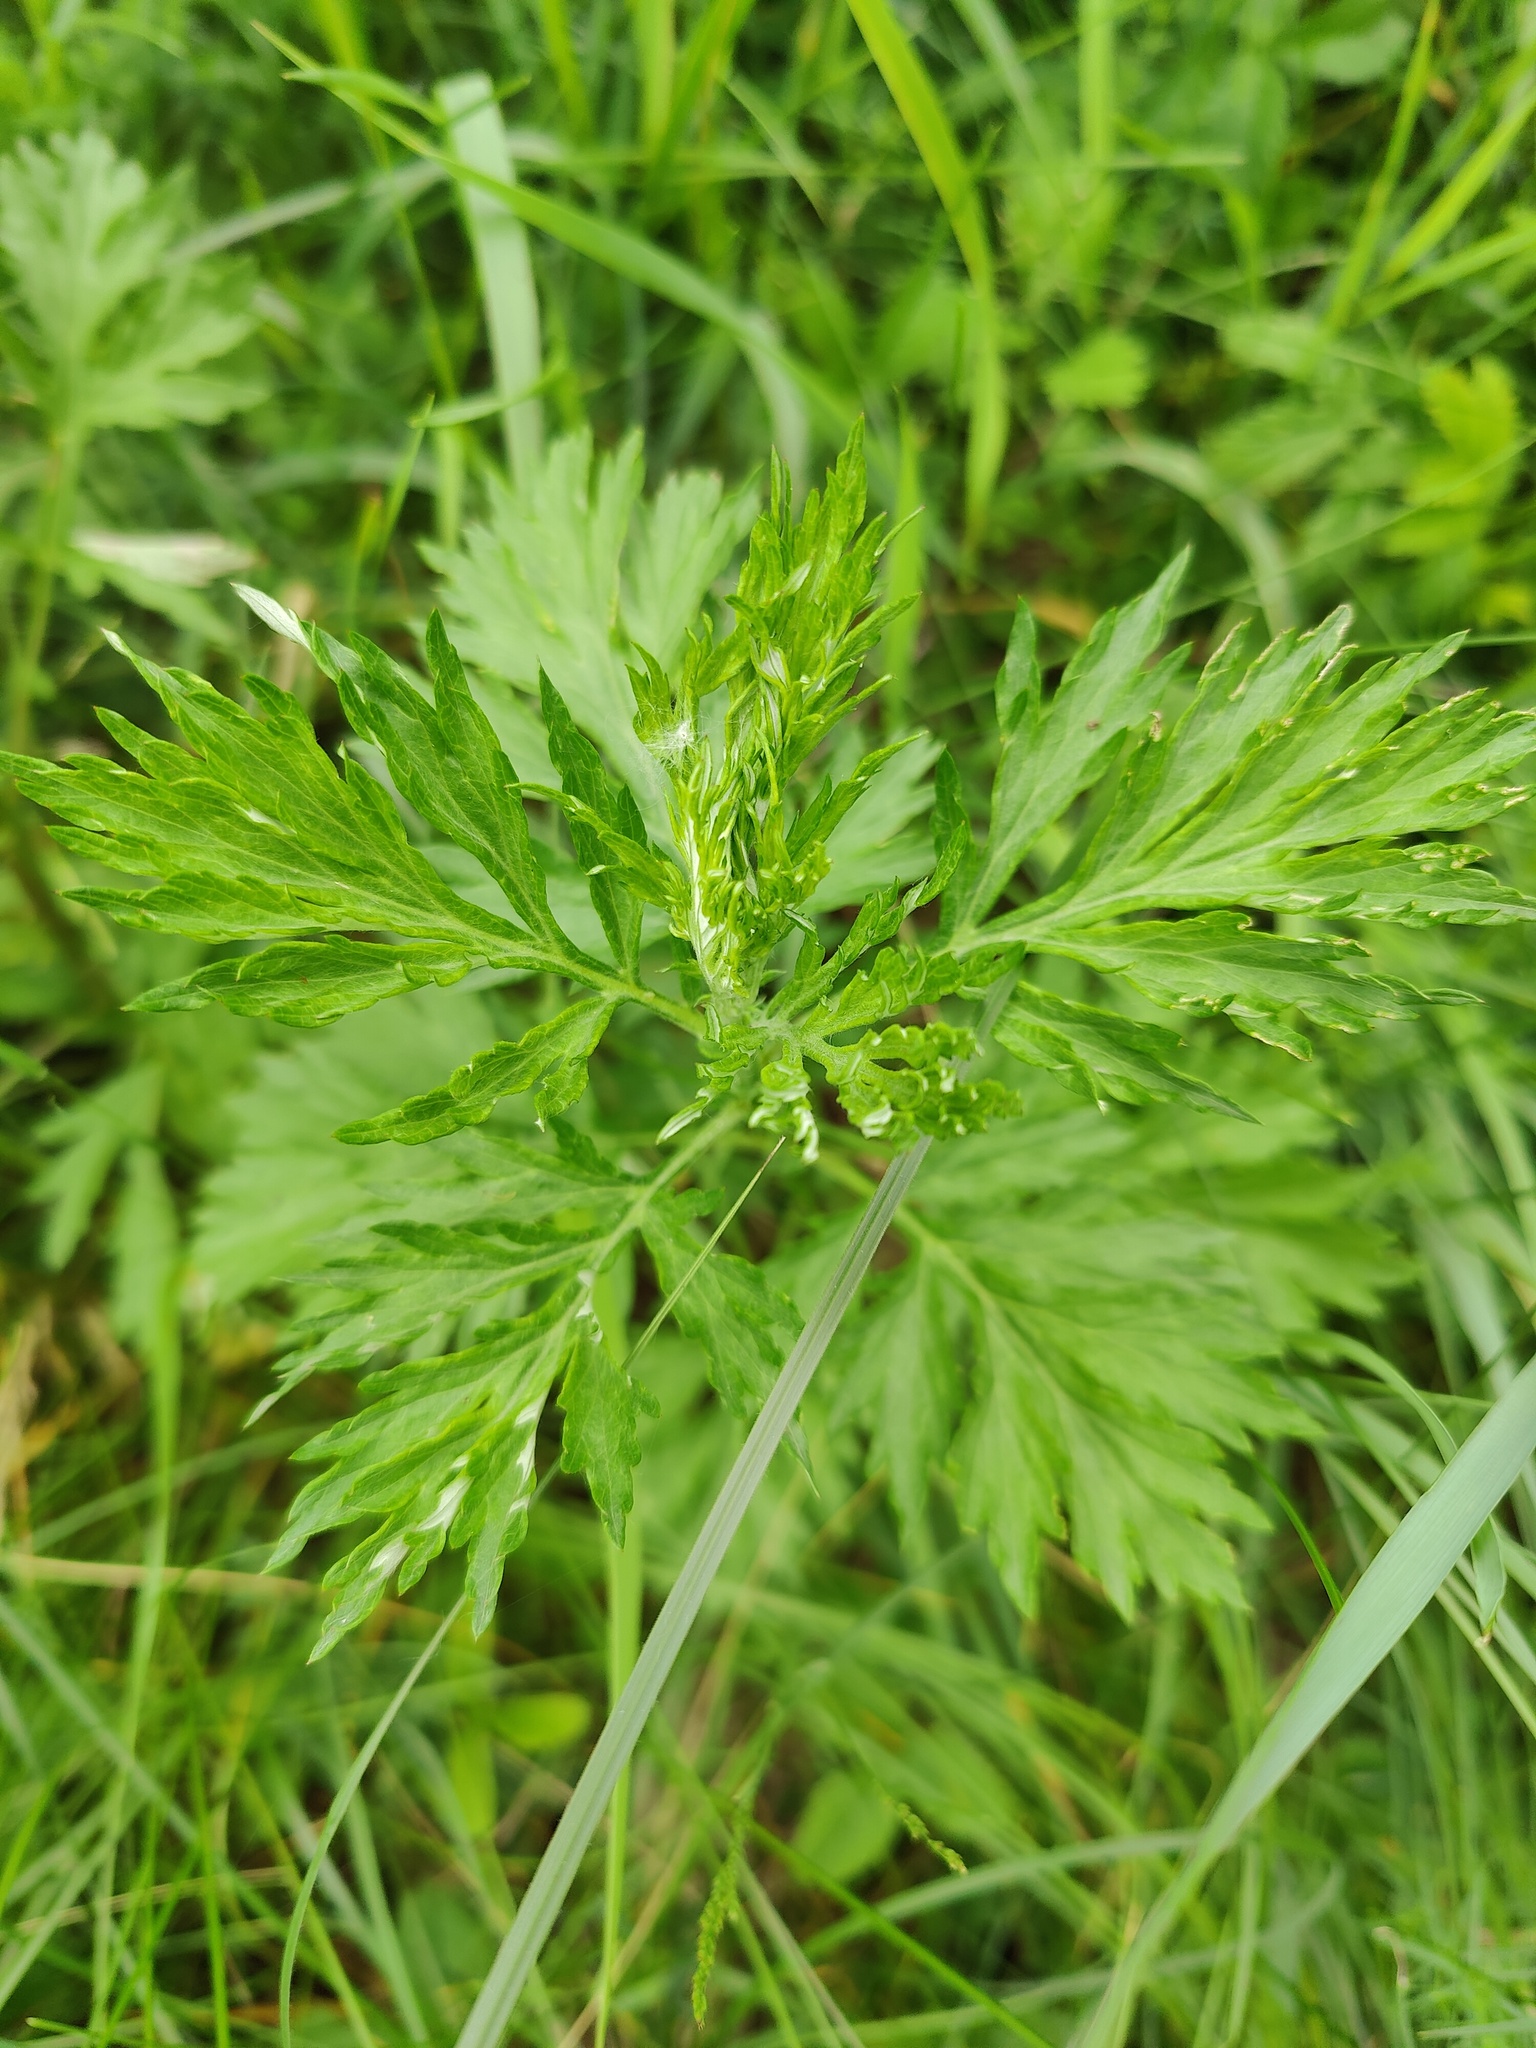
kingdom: Plantae
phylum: Tracheophyta
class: Magnoliopsida
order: Asterales
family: Asteraceae
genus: Artemisia
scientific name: Artemisia vulgaris
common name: Mugwort
